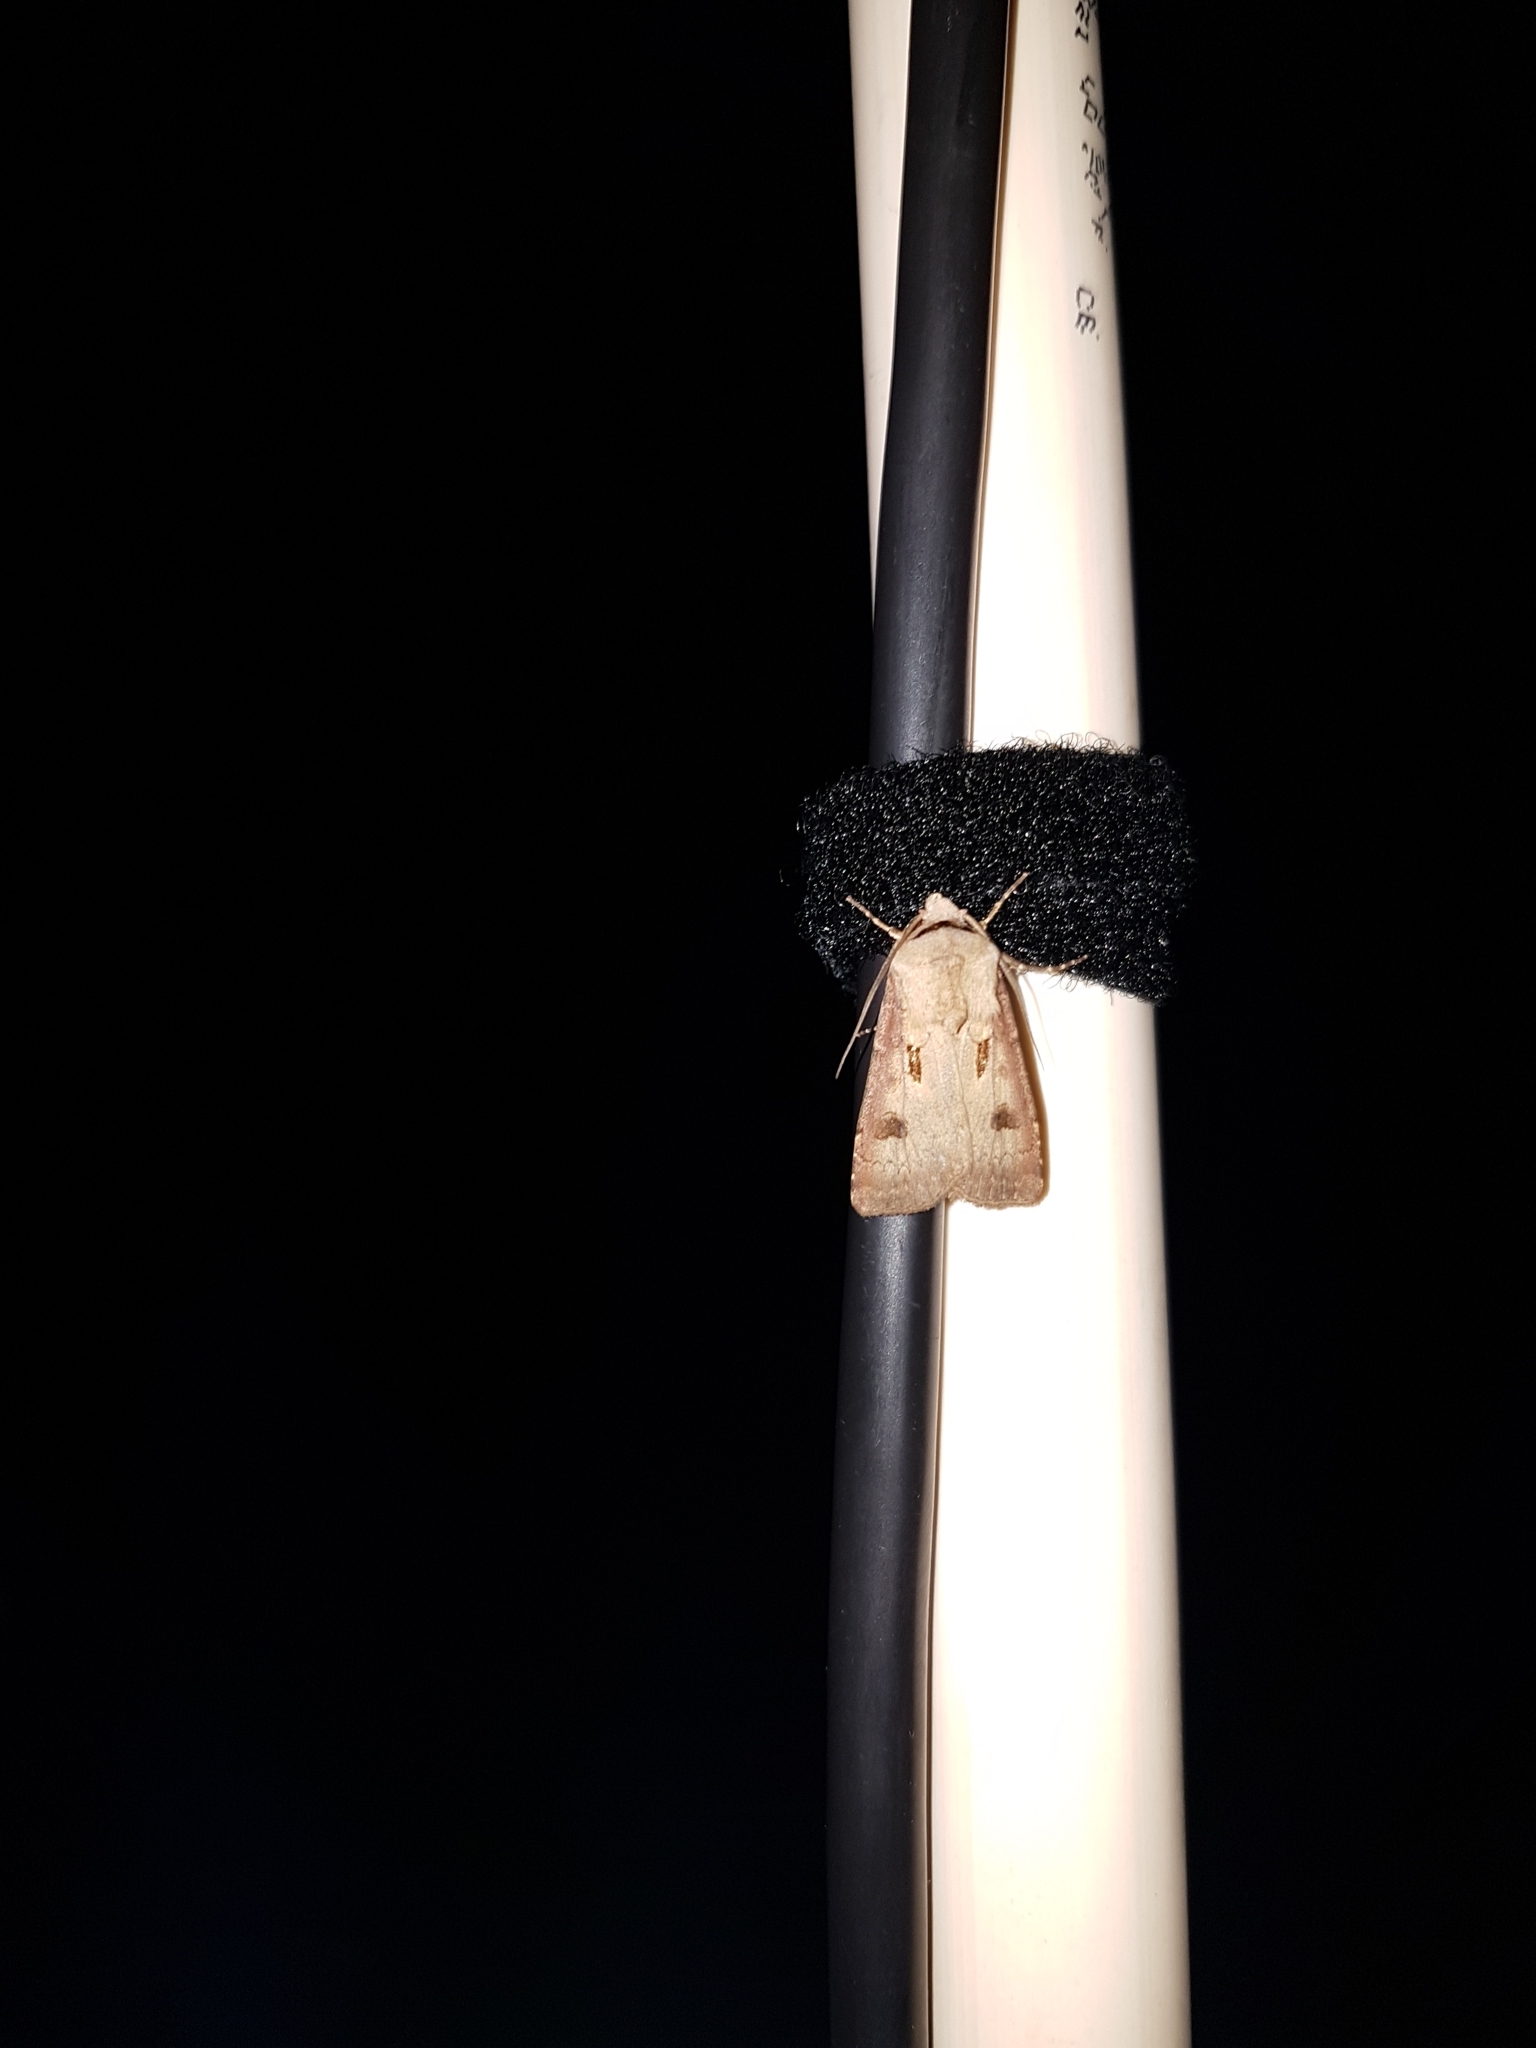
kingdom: Animalia
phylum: Arthropoda
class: Insecta
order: Lepidoptera
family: Noctuidae
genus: Agrotis
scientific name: Agrotis exclamationis
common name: Heart and dart
